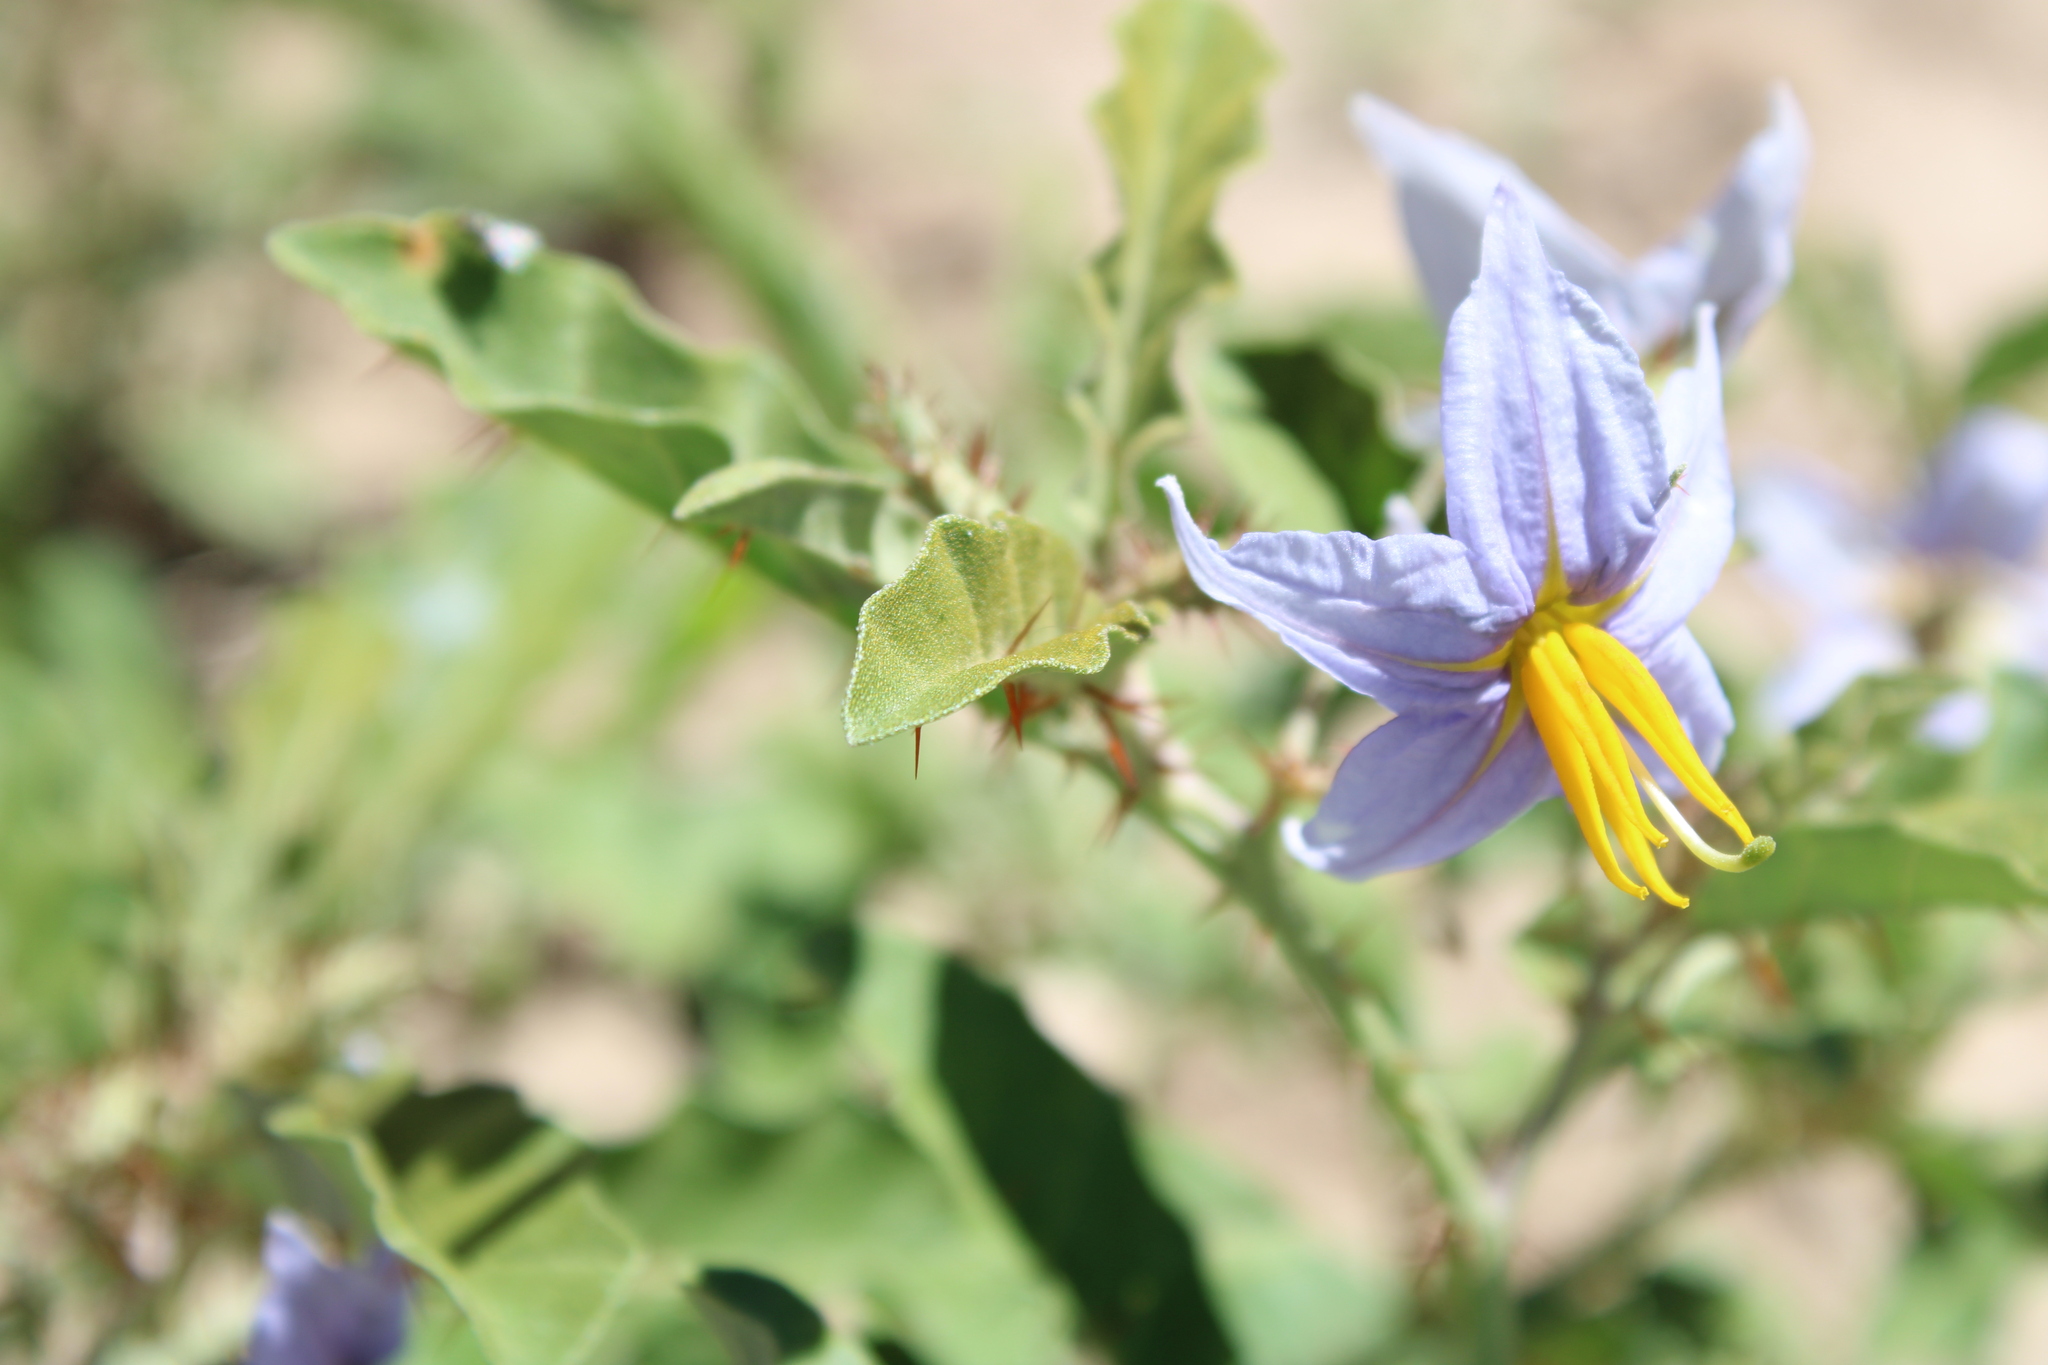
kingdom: Plantae
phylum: Tracheophyta
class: Magnoliopsida
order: Solanales
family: Solanaceae
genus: Solanum
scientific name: Solanum elaeagnifolium
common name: Silverleaf nightshade
